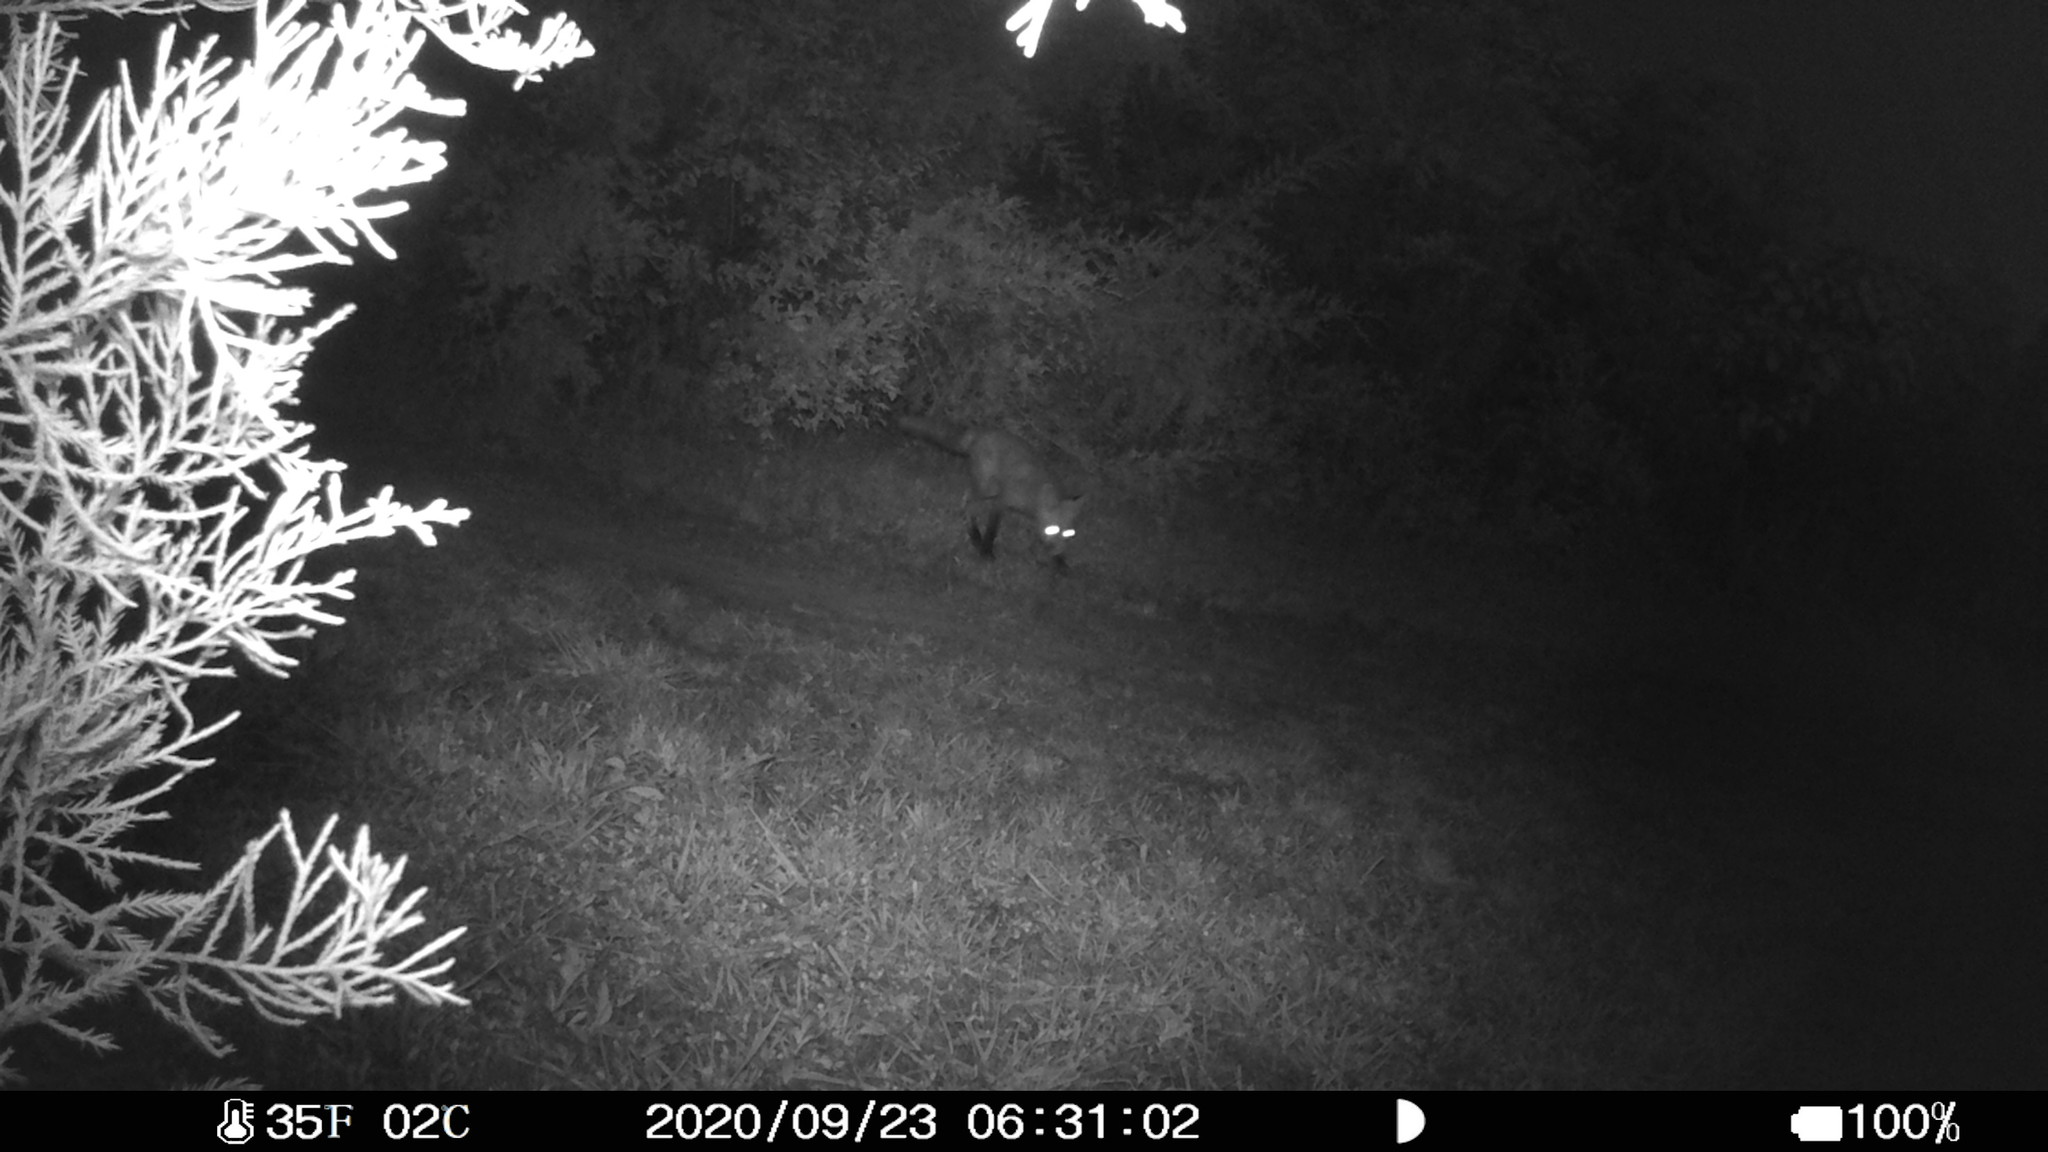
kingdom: Animalia
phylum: Chordata
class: Mammalia
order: Carnivora
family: Canidae
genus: Vulpes
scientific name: Vulpes vulpes
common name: Red fox
